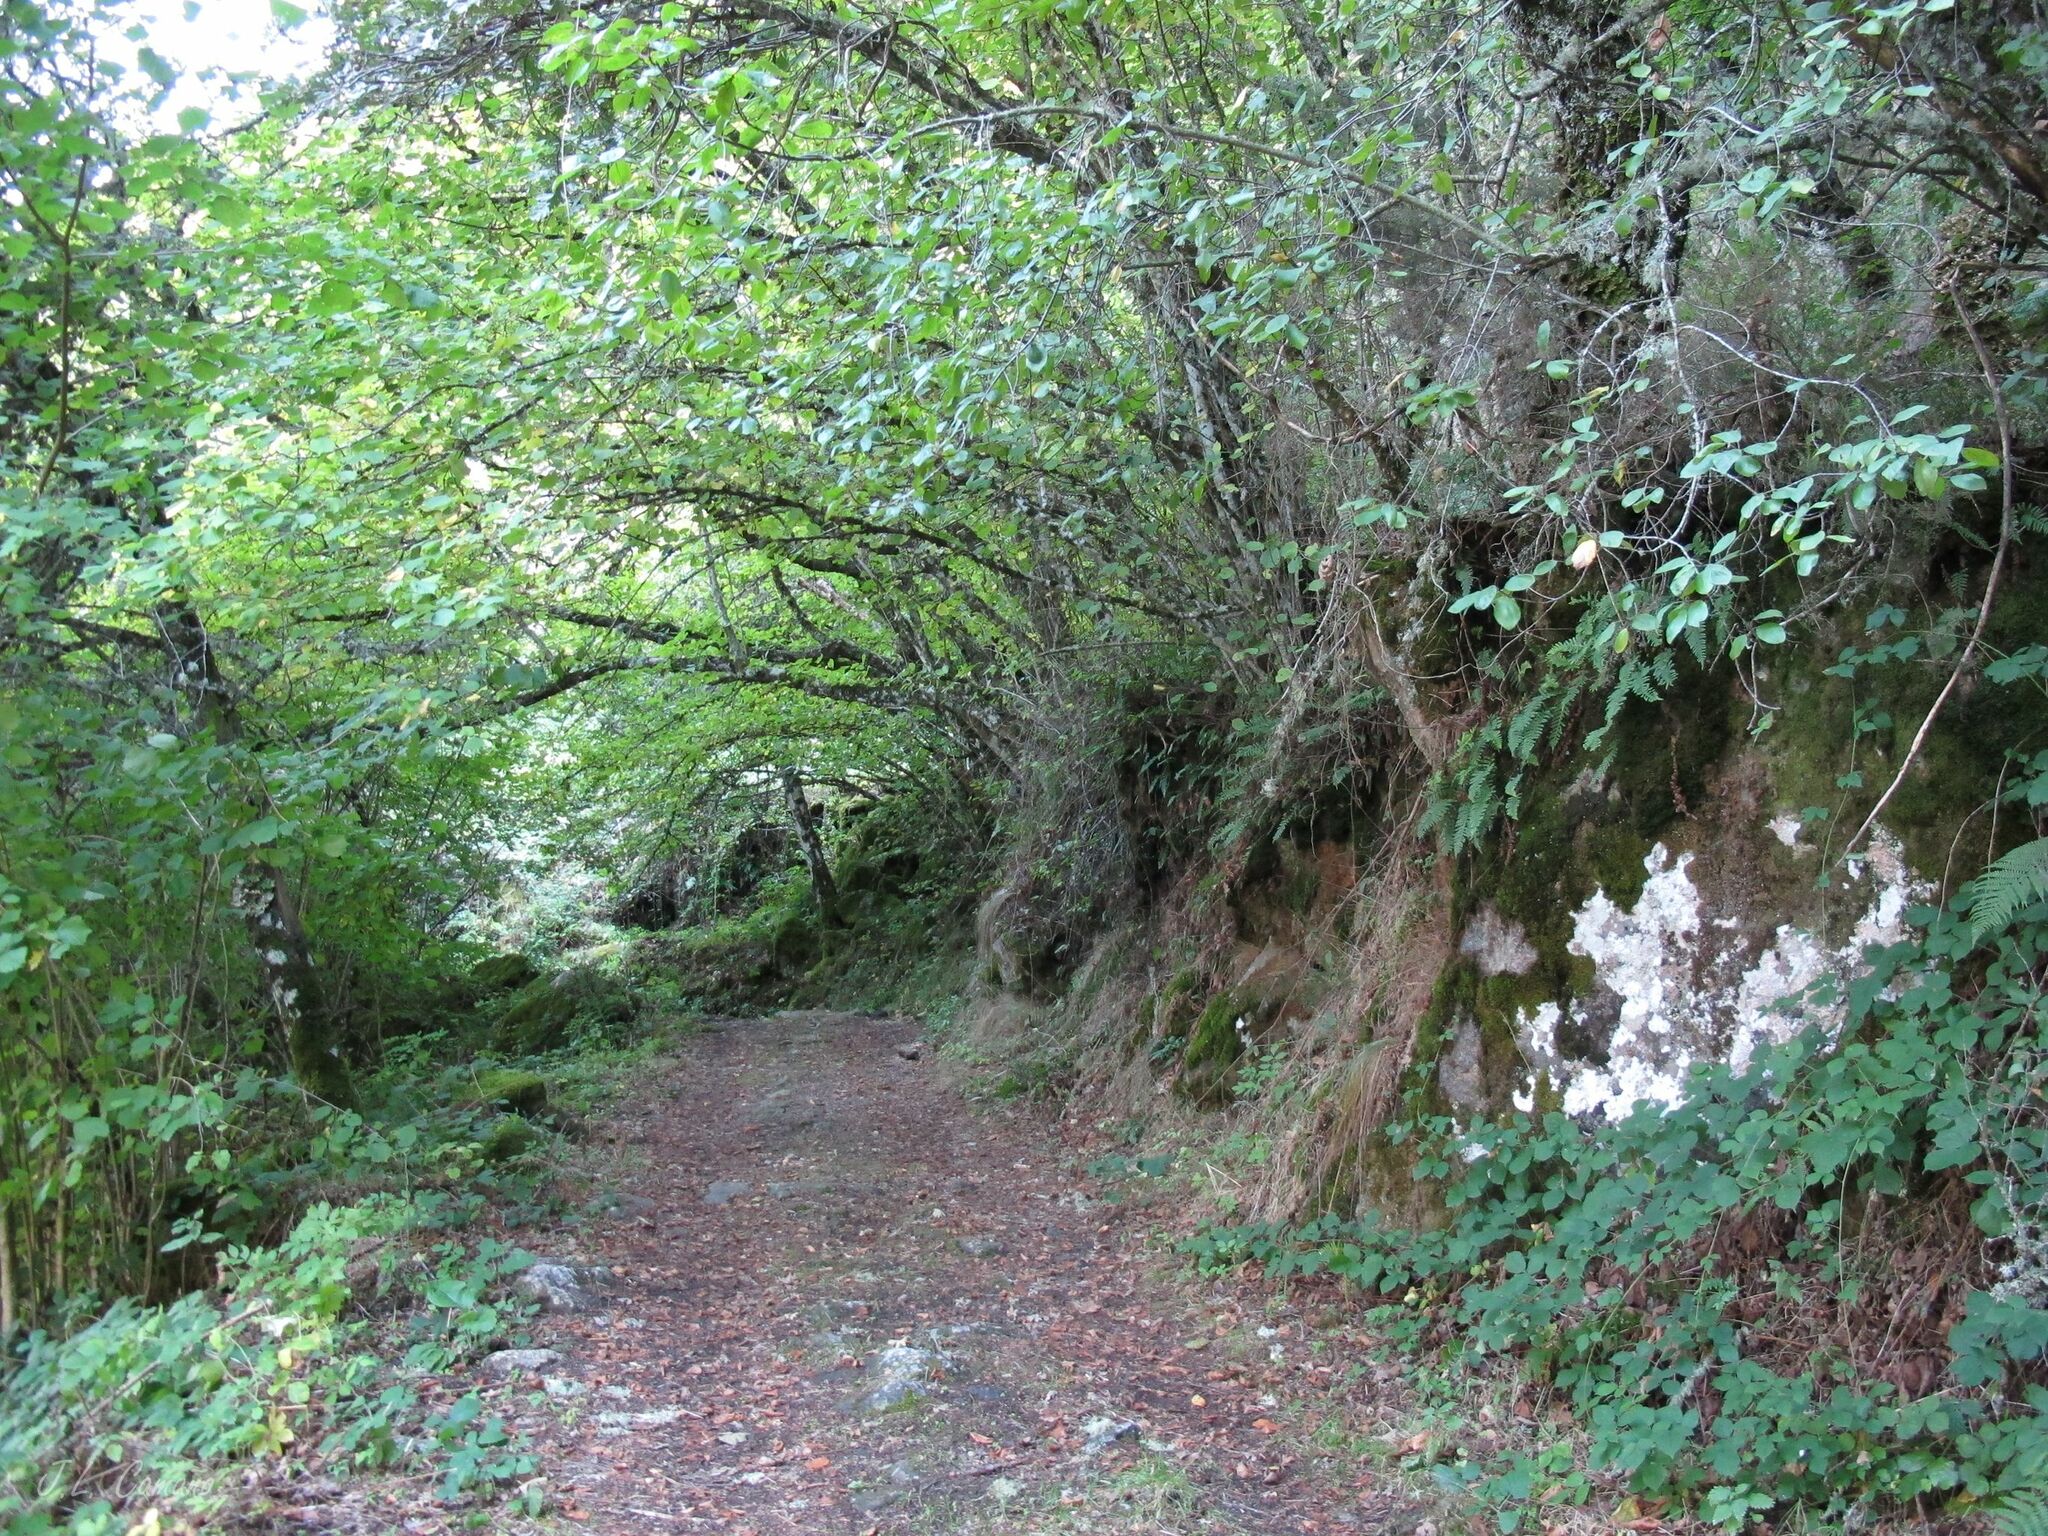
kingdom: Plantae
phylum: Bryophyta
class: Bryopsida
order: Hypnales
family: Lembophyllaceae
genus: Nogopterium
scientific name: Nogopterium gracile
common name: Bird's-foot wing-moss
